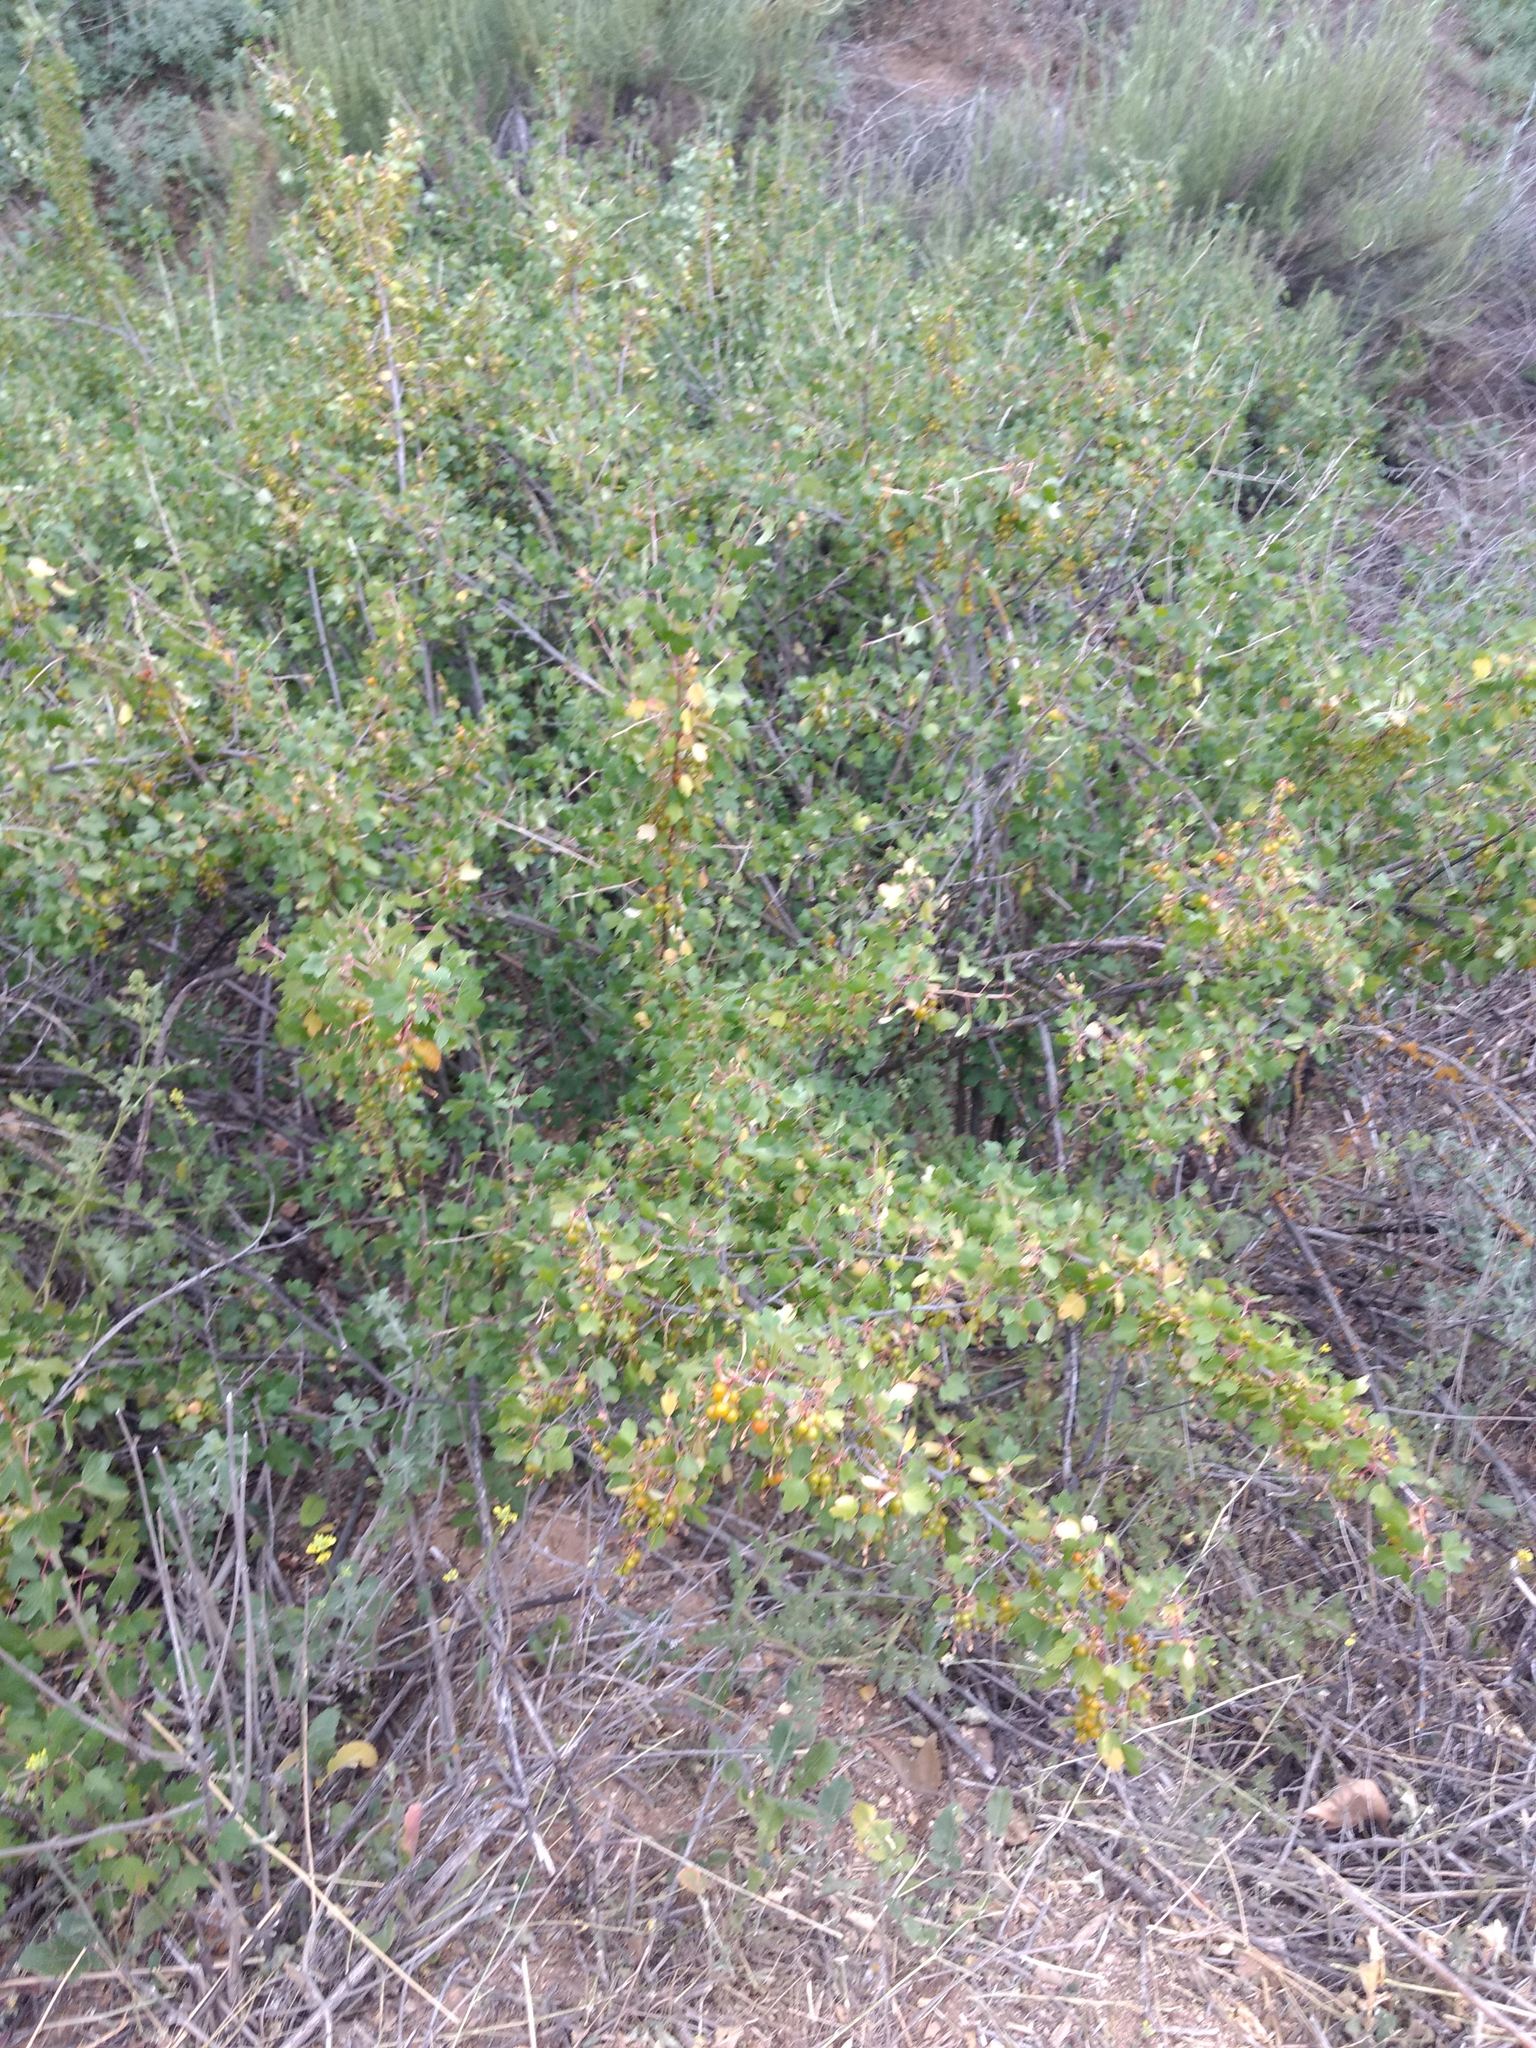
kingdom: Plantae
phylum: Tracheophyta
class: Magnoliopsida
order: Saxifragales
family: Grossulariaceae
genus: Ribes
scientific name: Ribes aureum
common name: Golden currant
